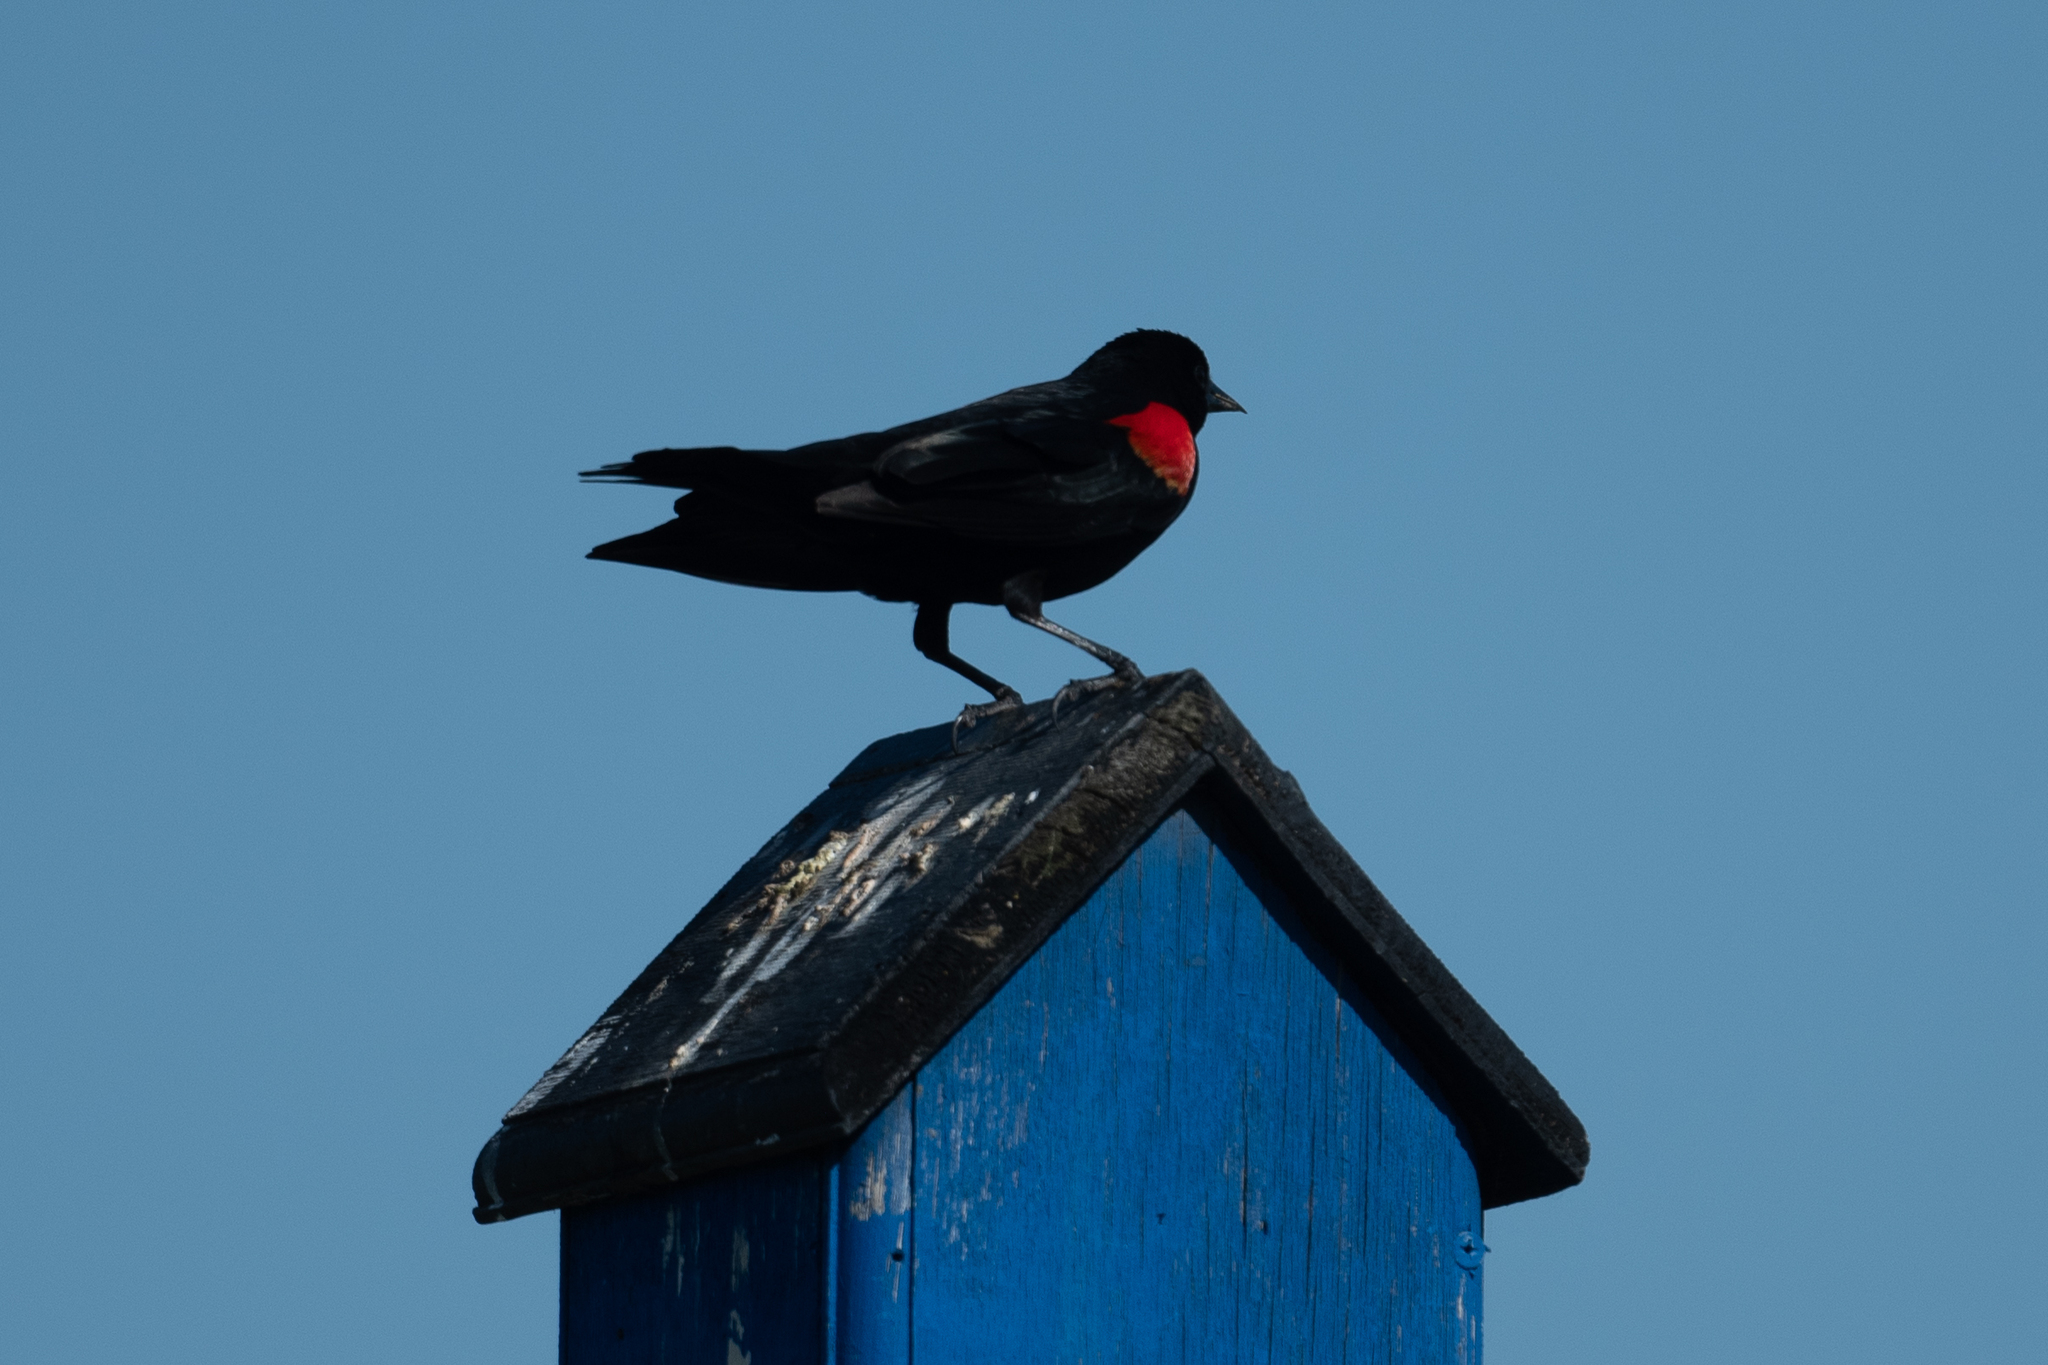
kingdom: Animalia
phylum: Chordata
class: Aves
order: Passeriformes
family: Icteridae
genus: Agelaius
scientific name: Agelaius phoeniceus
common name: Red-winged blackbird
